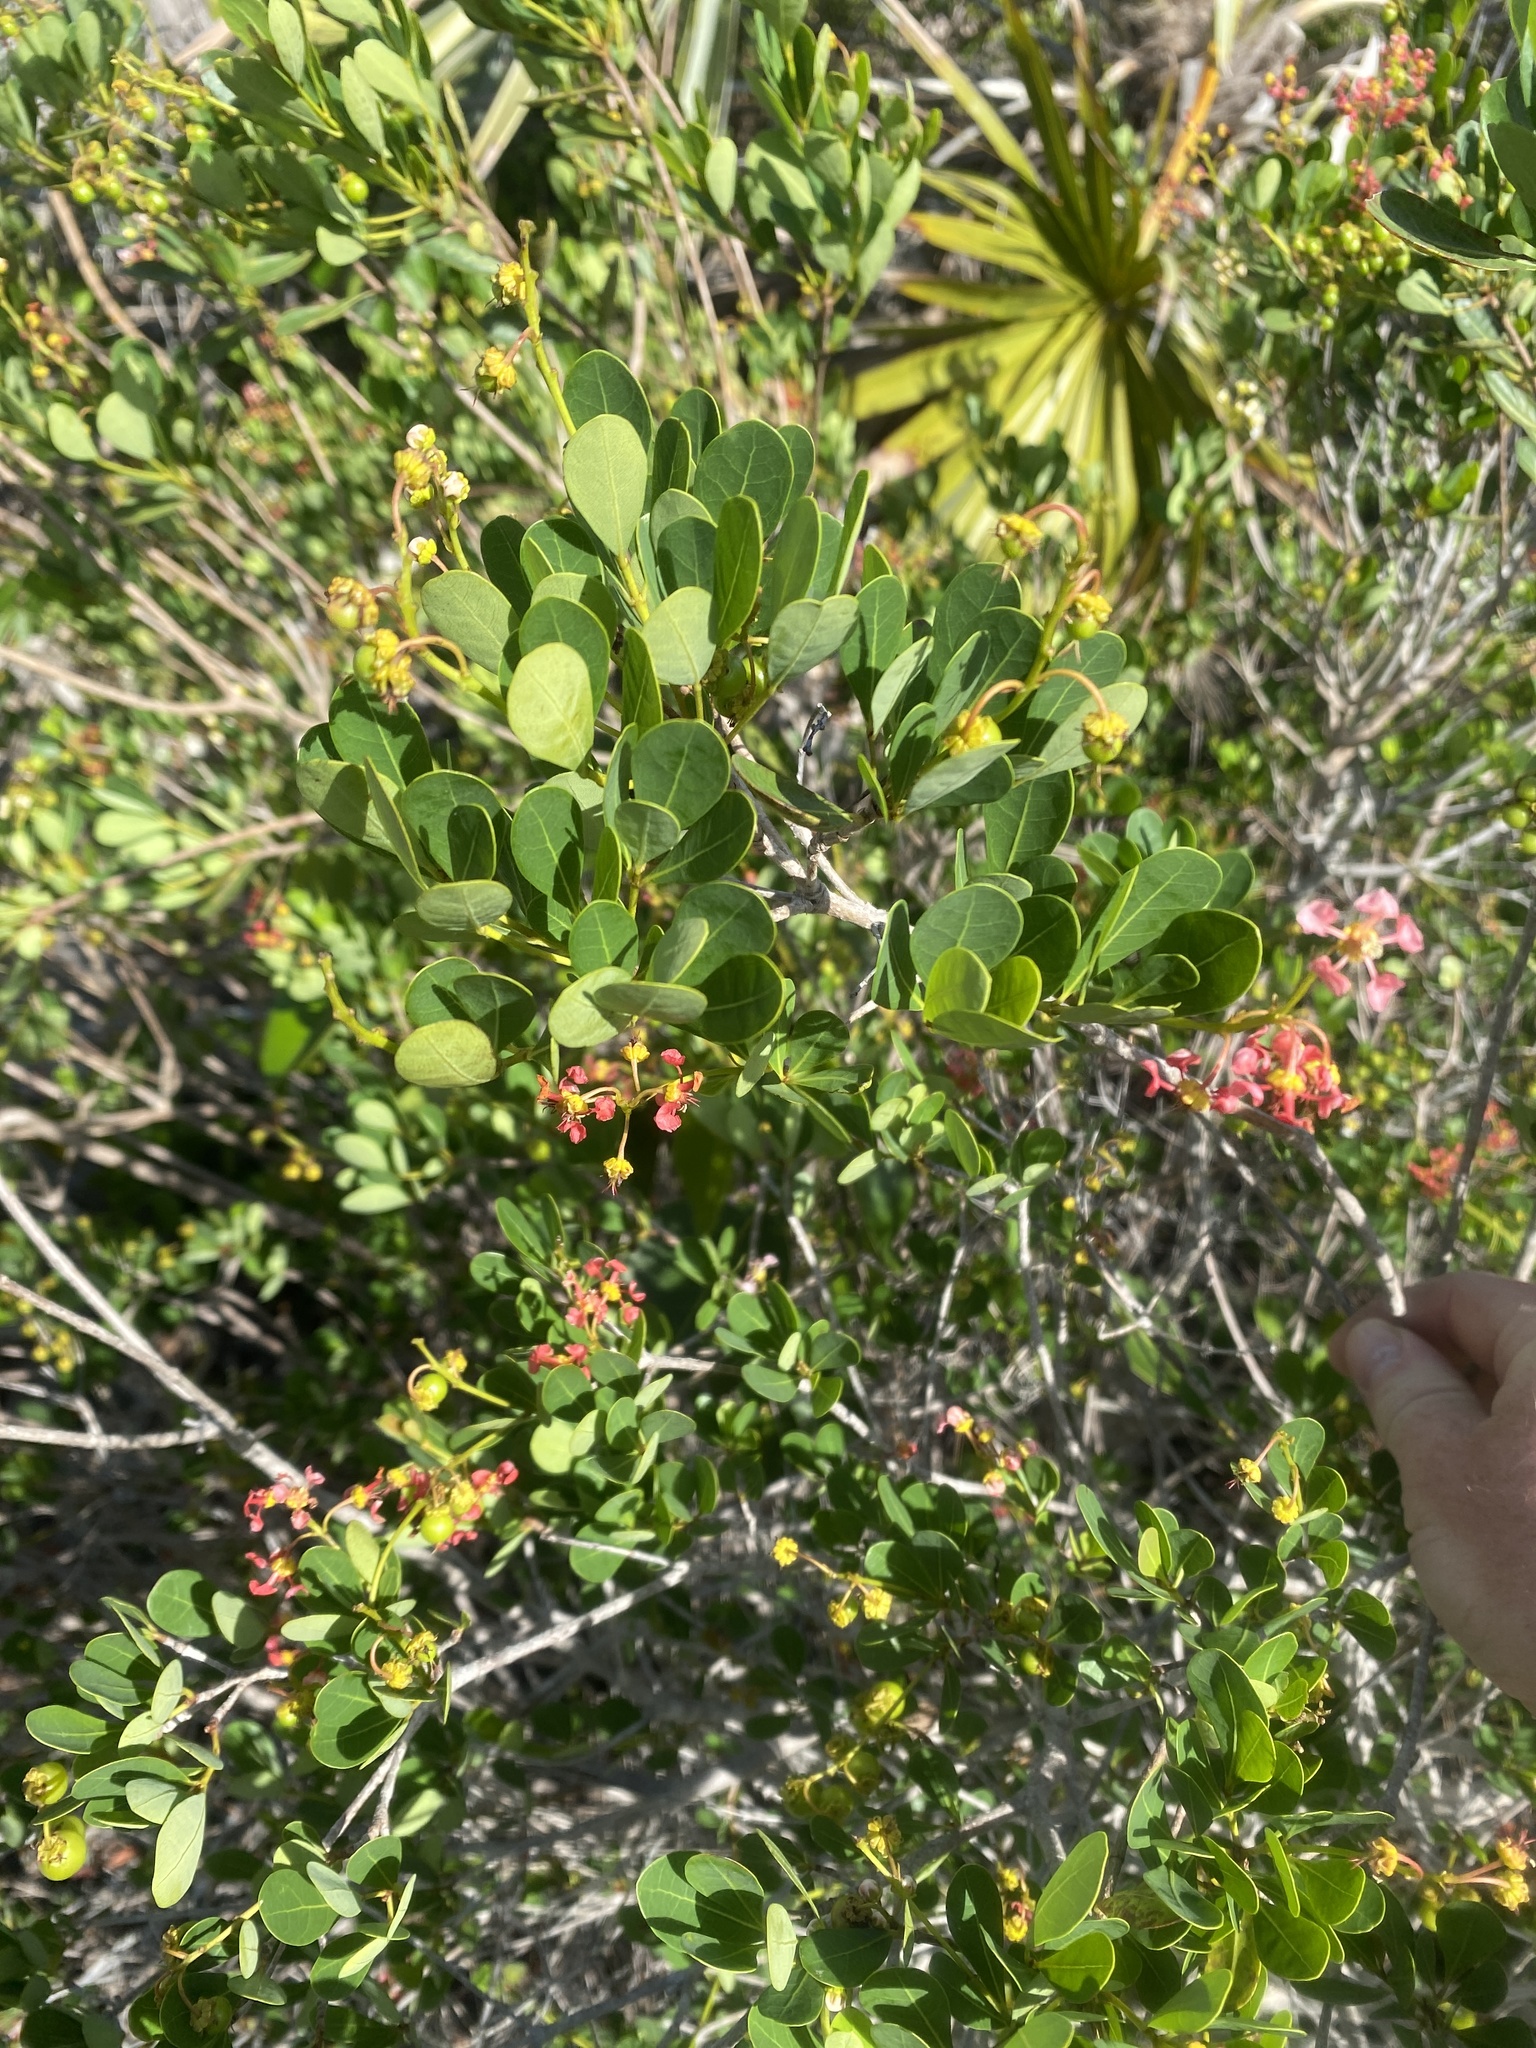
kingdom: Plantae
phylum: Tracheophyta
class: Magnoliopsida
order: Malpighiales
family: Malpighiaceae
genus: Byrsonima
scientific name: Byrsonima lucida
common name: Clam-cherry
